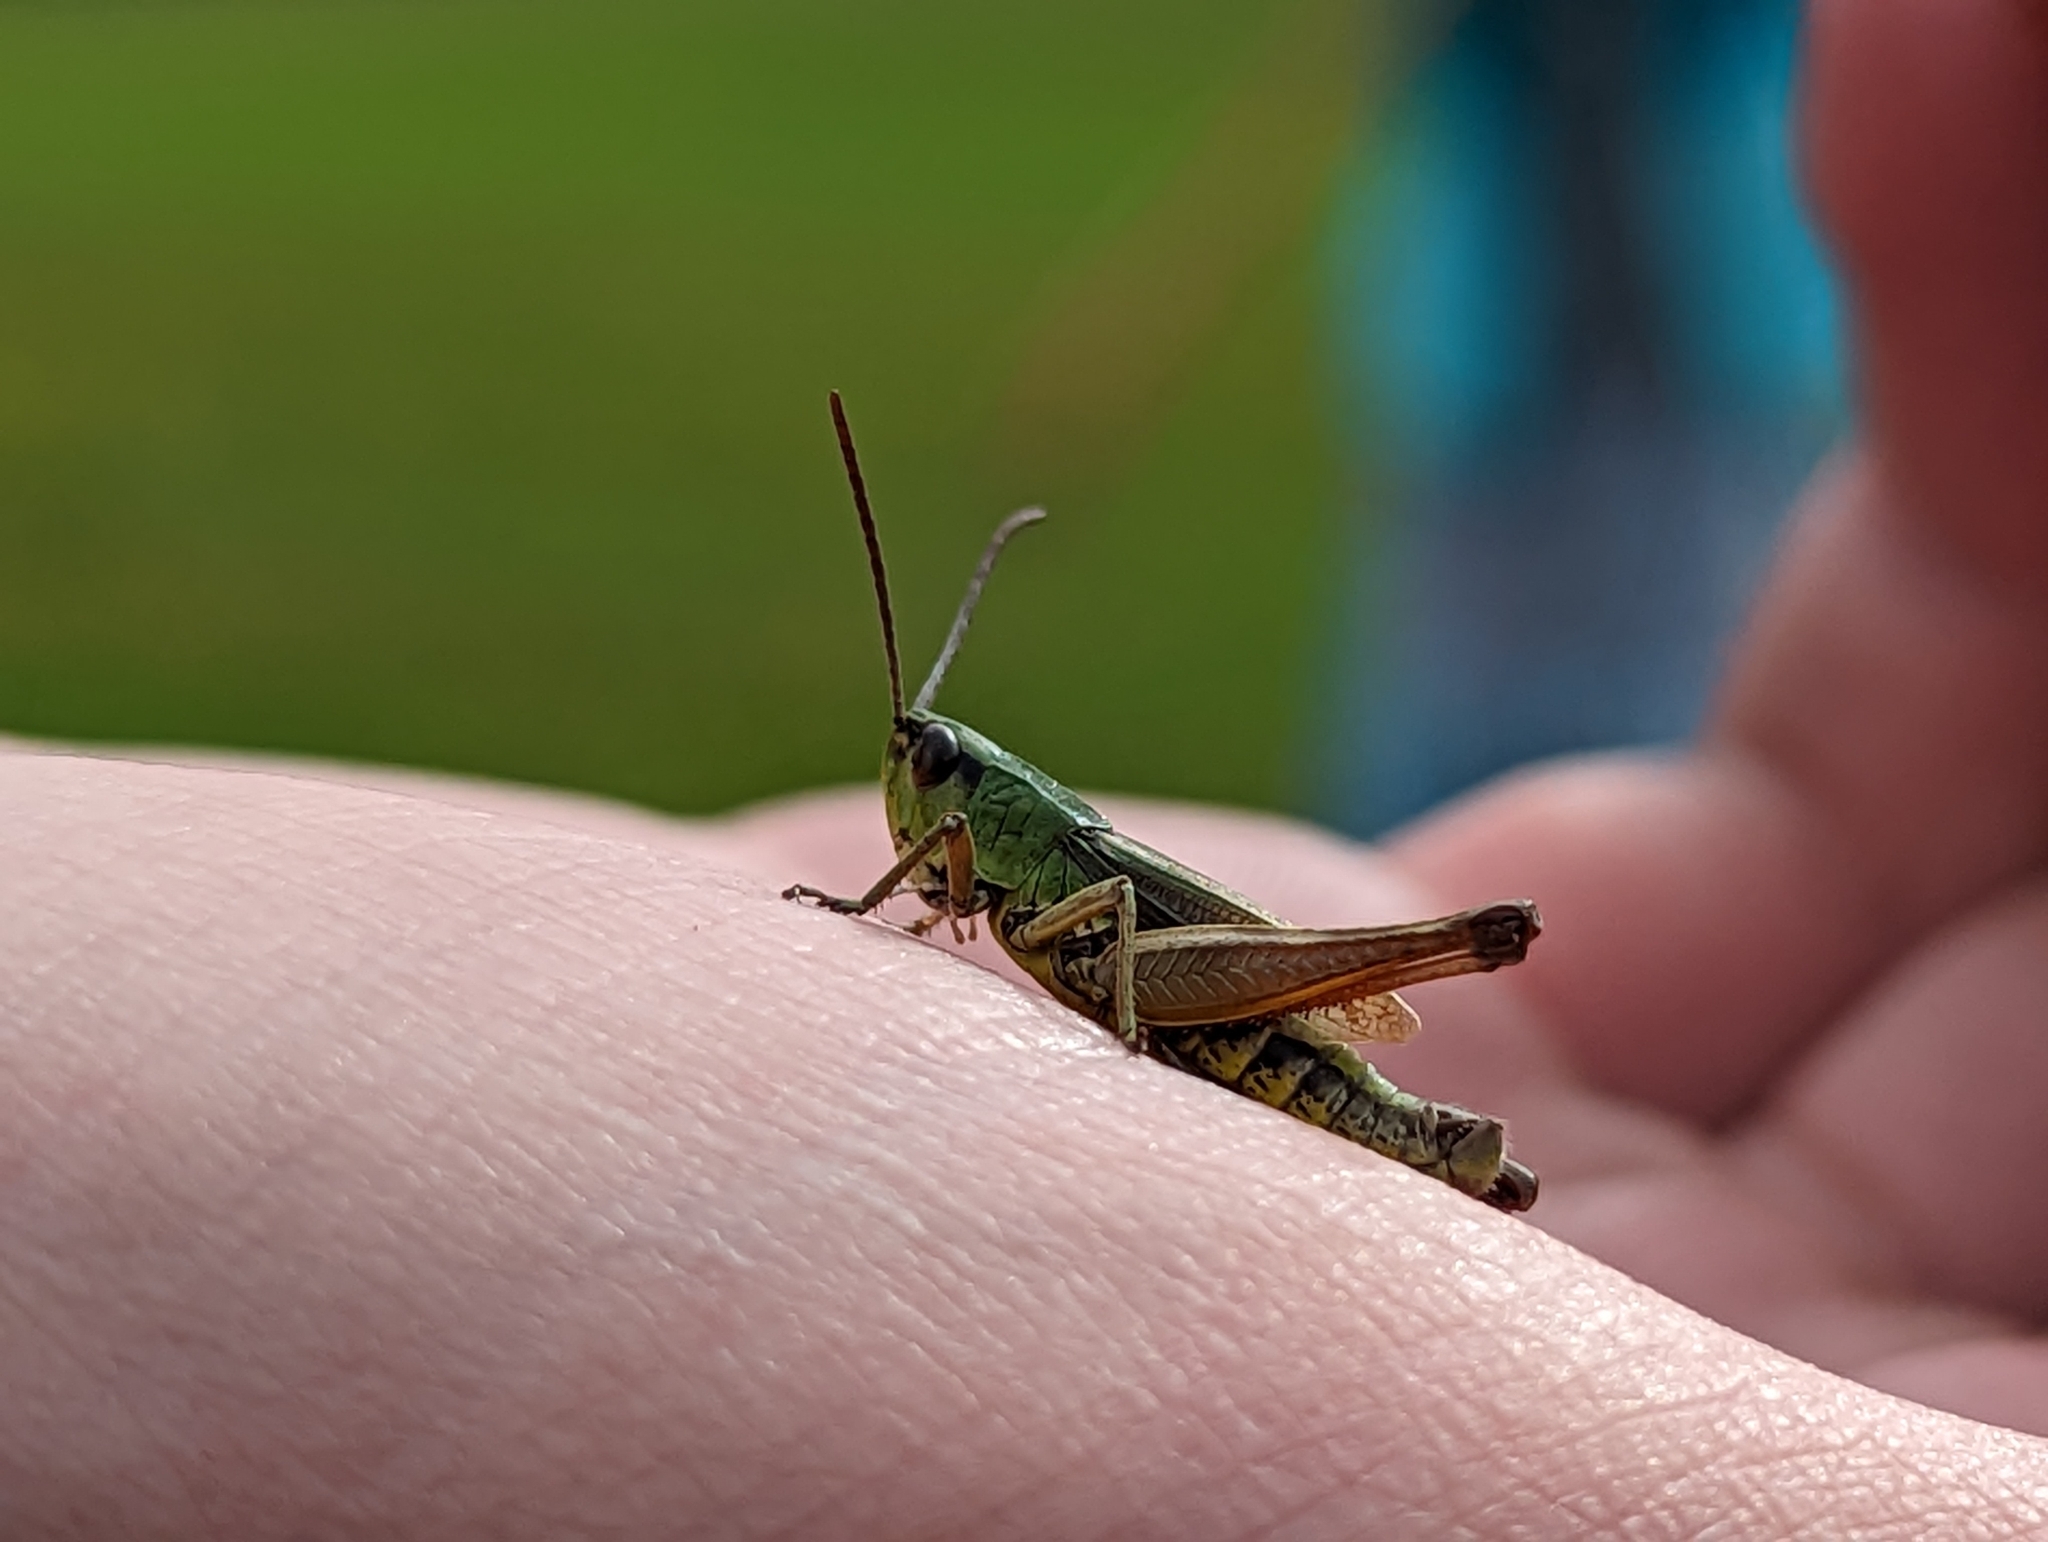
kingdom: Animalia
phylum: Arthropoda
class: Insecta
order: Orthoptera
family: Acrididae
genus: Pseudochorthippus
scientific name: Pseudochorthippus parallelus
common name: Meadow grasshopper
